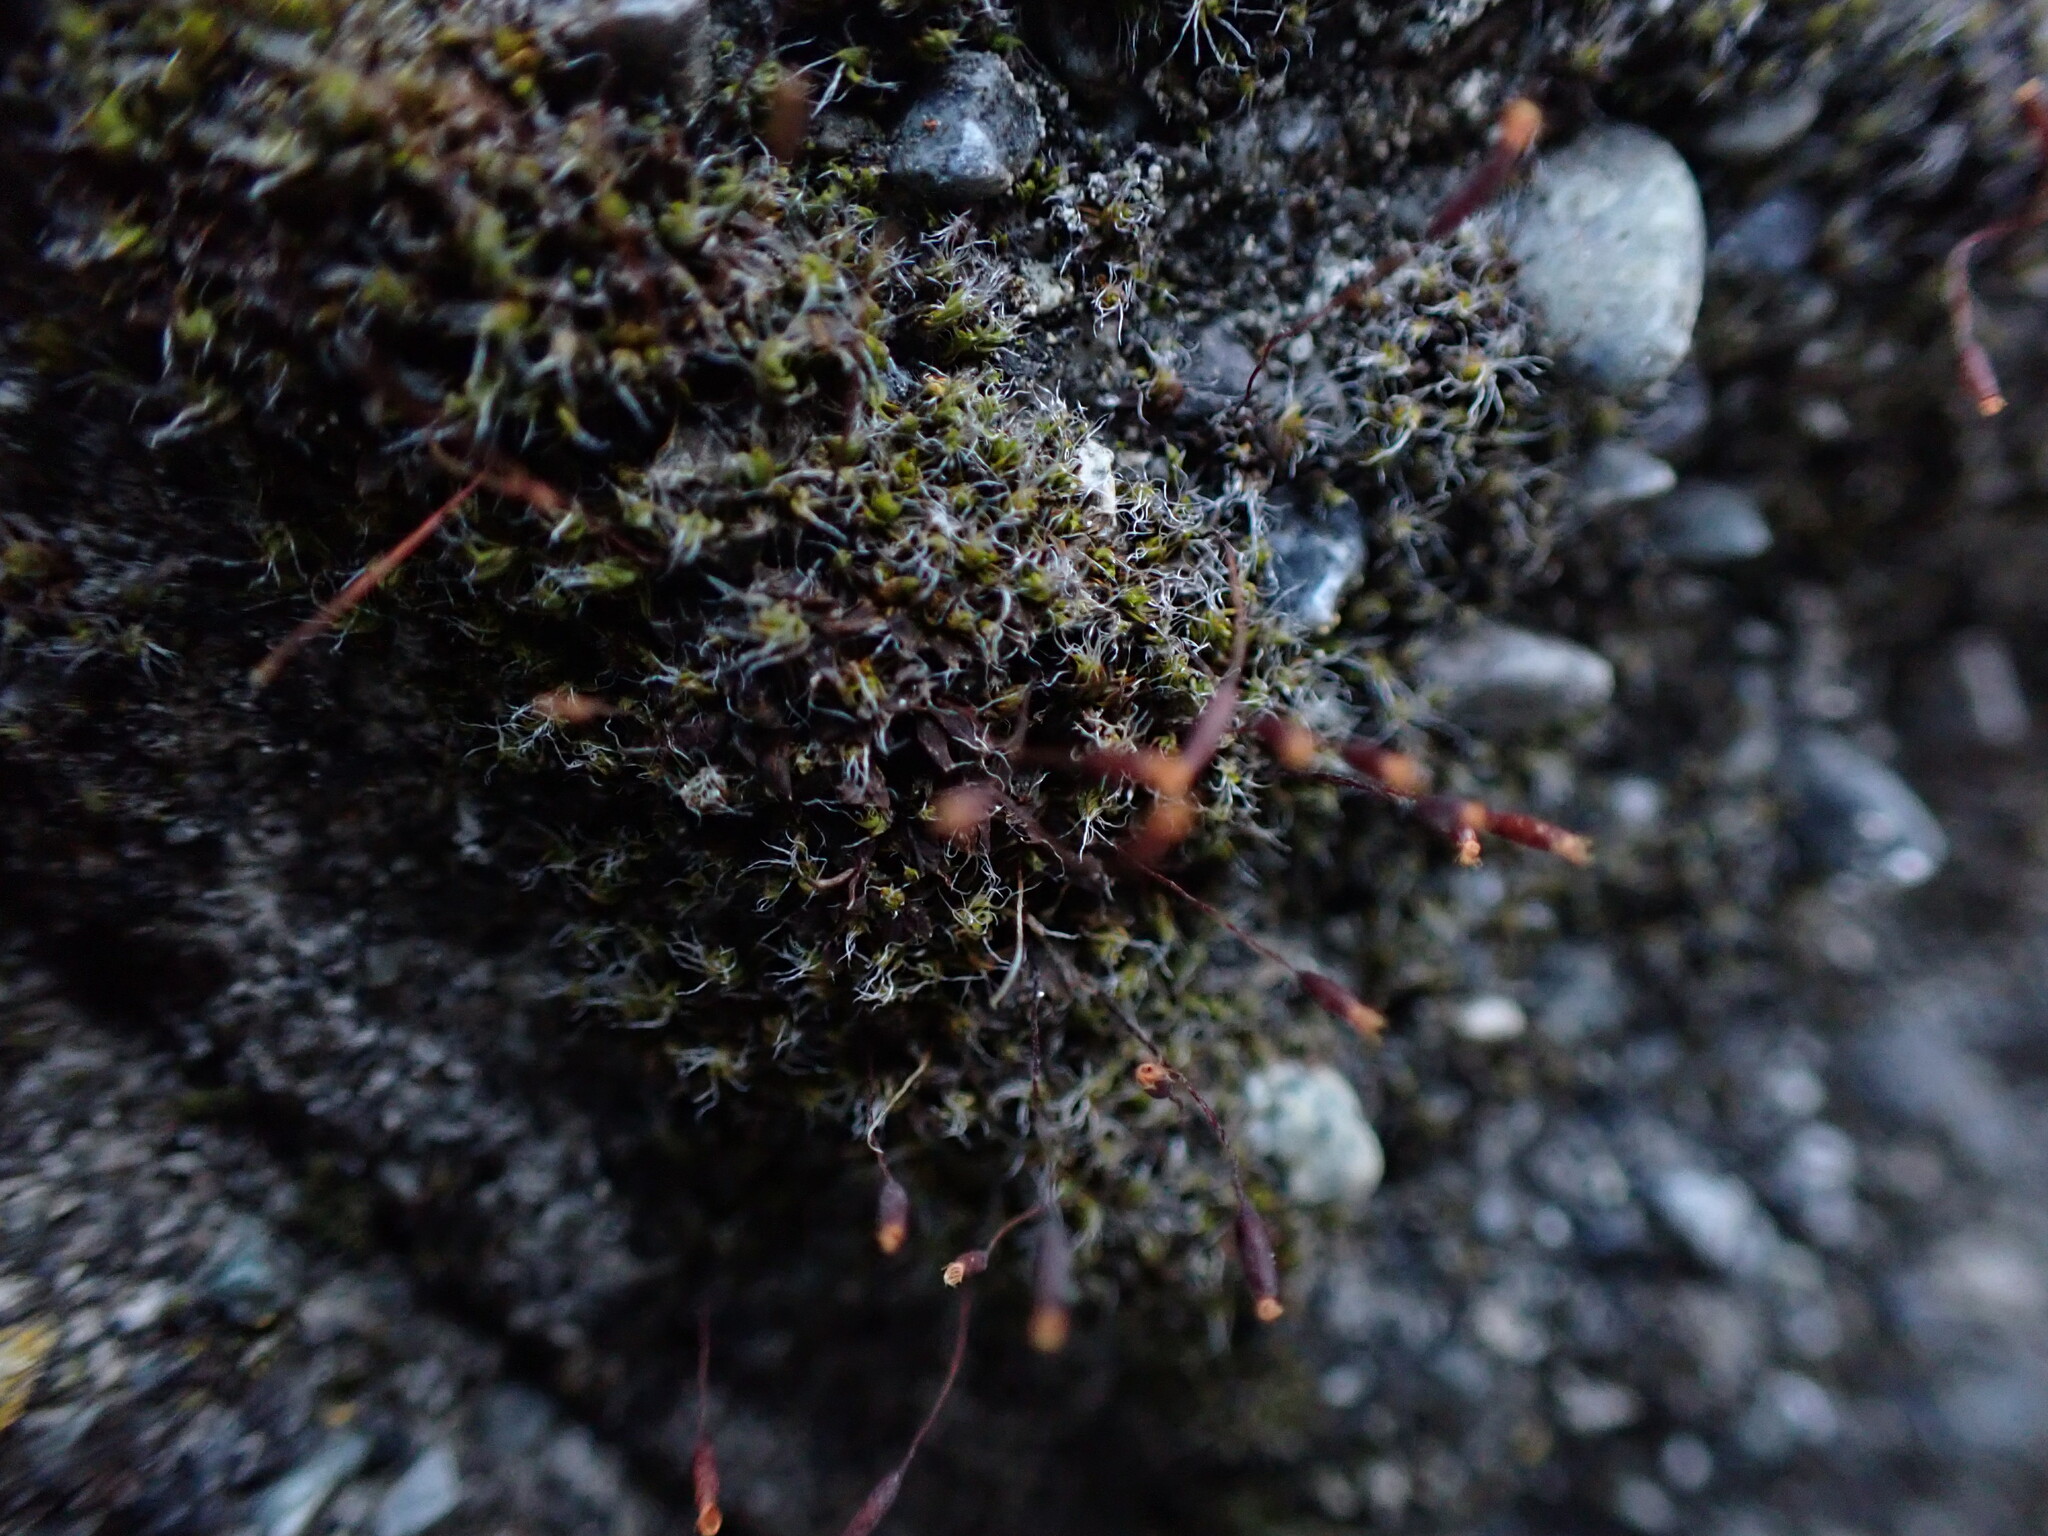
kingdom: Plantae
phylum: Bryophyta
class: Bryopsida
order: Pottiales
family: Pottiaceae
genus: Tortula
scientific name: Tortula muralis
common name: Wall screw-moss
